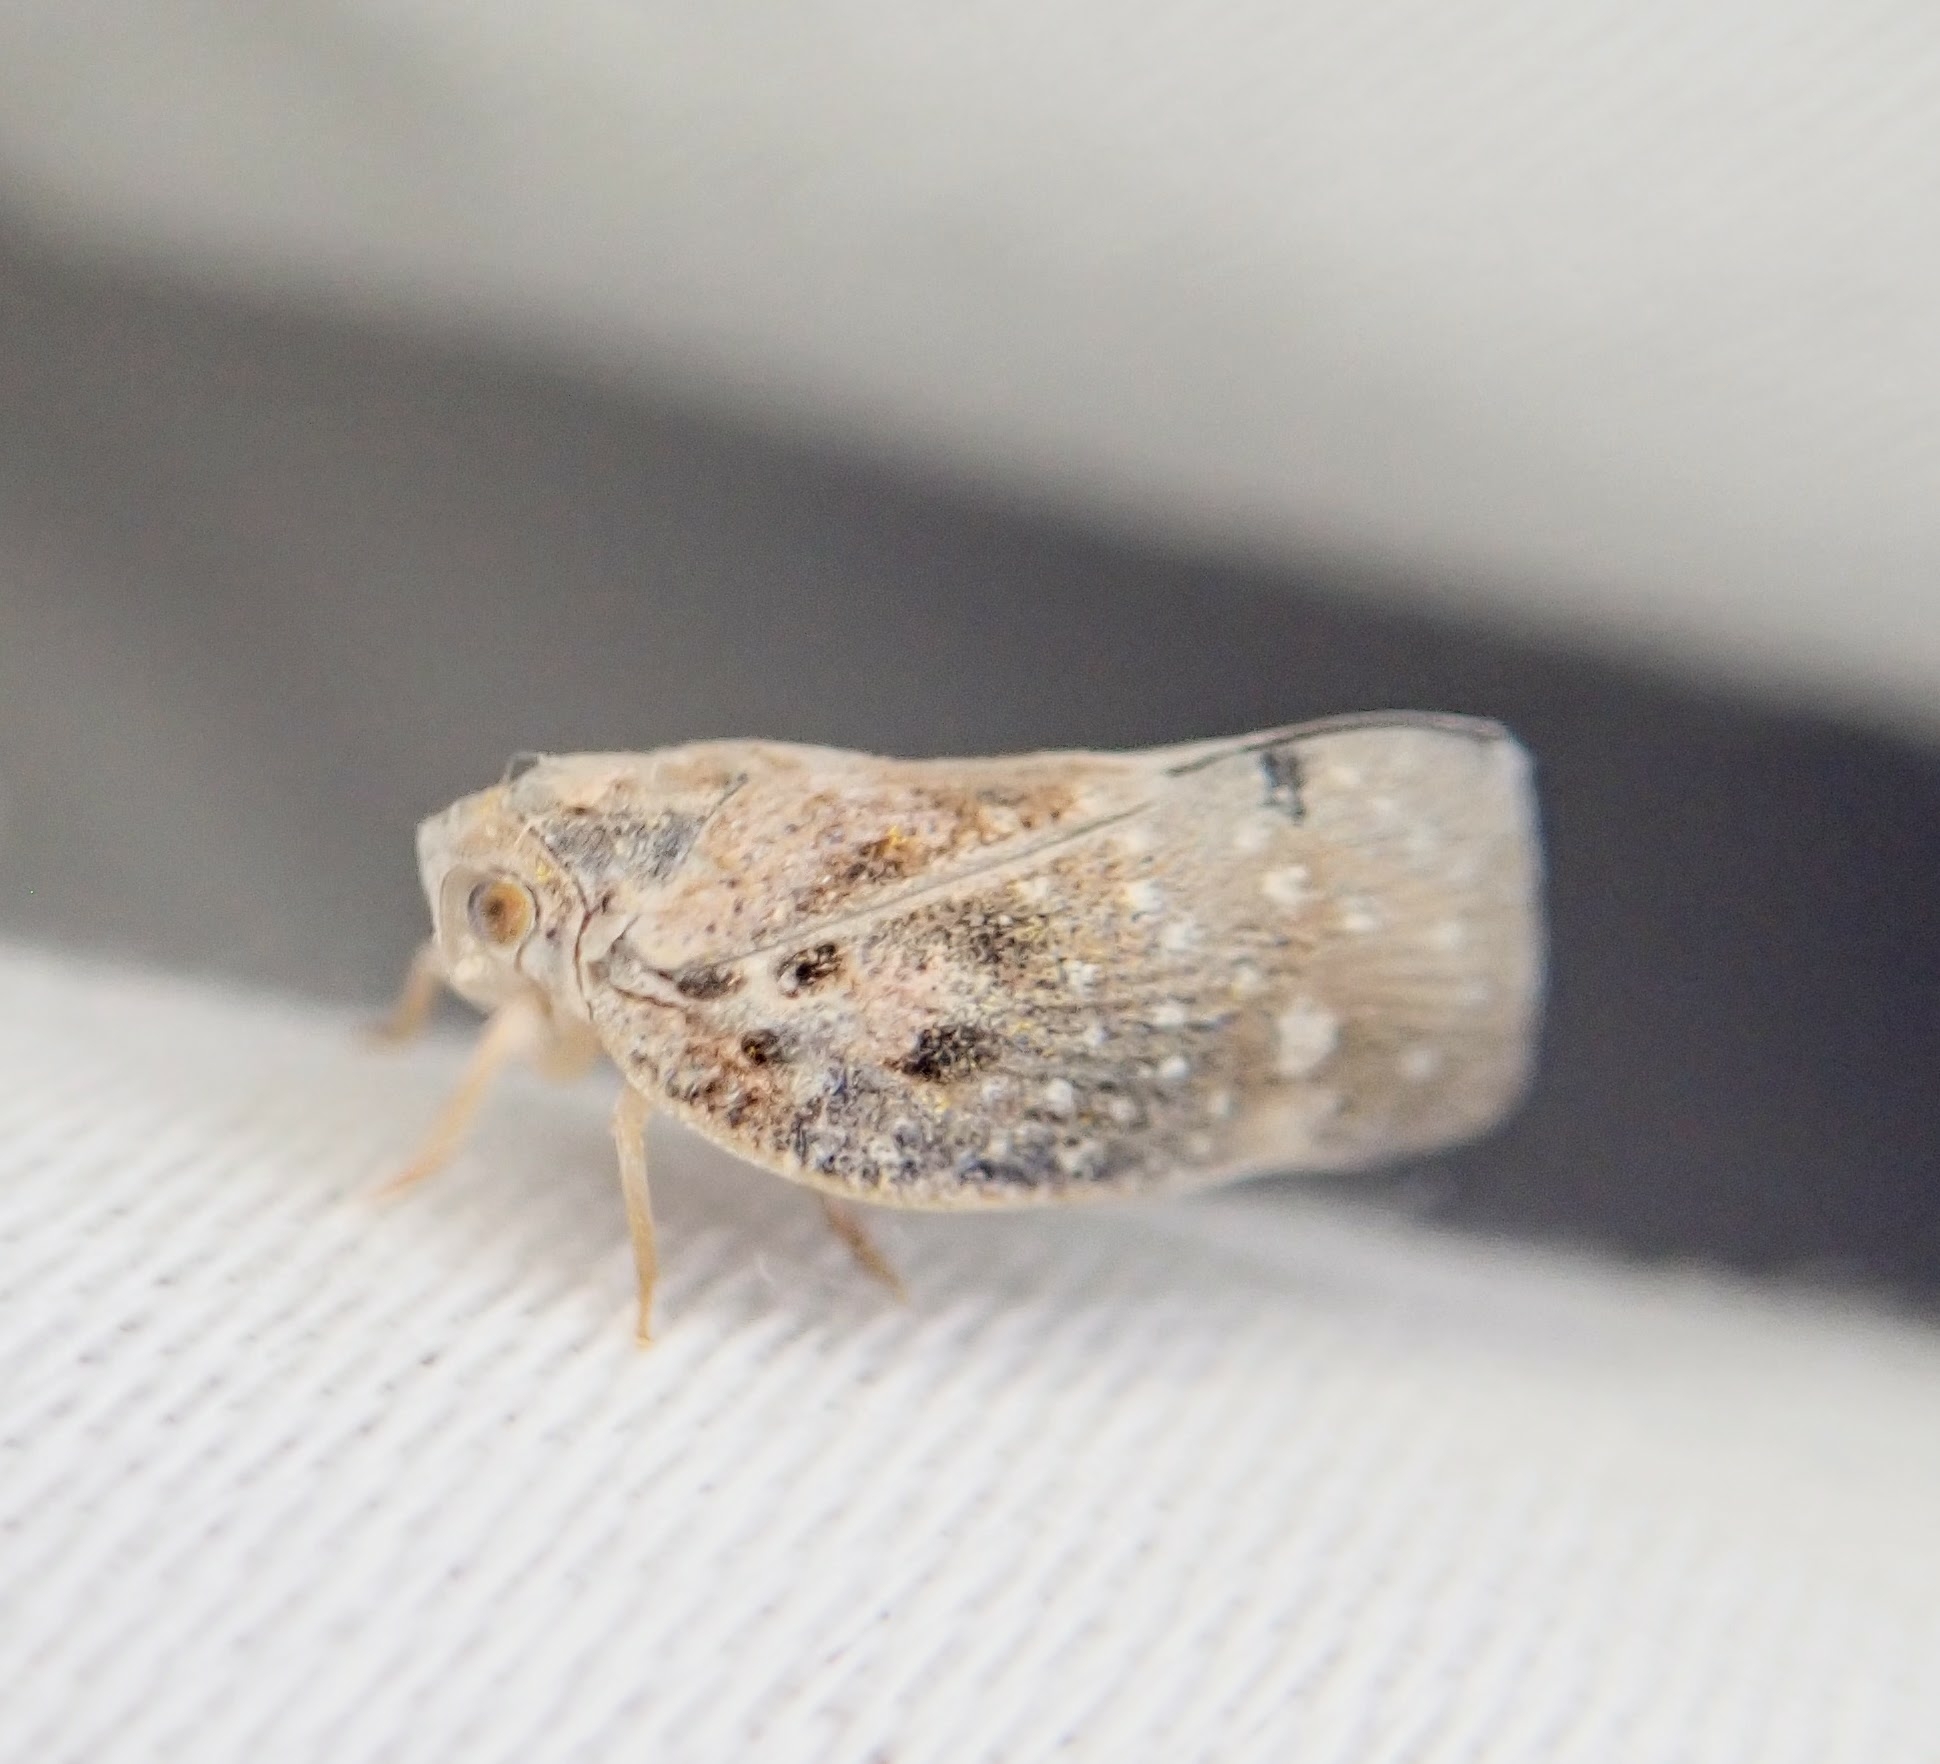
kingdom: Animalia
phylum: Arthropoda
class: Insecta
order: Hemiptera
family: Flatidae
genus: Metcalfa
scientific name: Metcalfa pruinosa
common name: Citrus flatid planthopper
